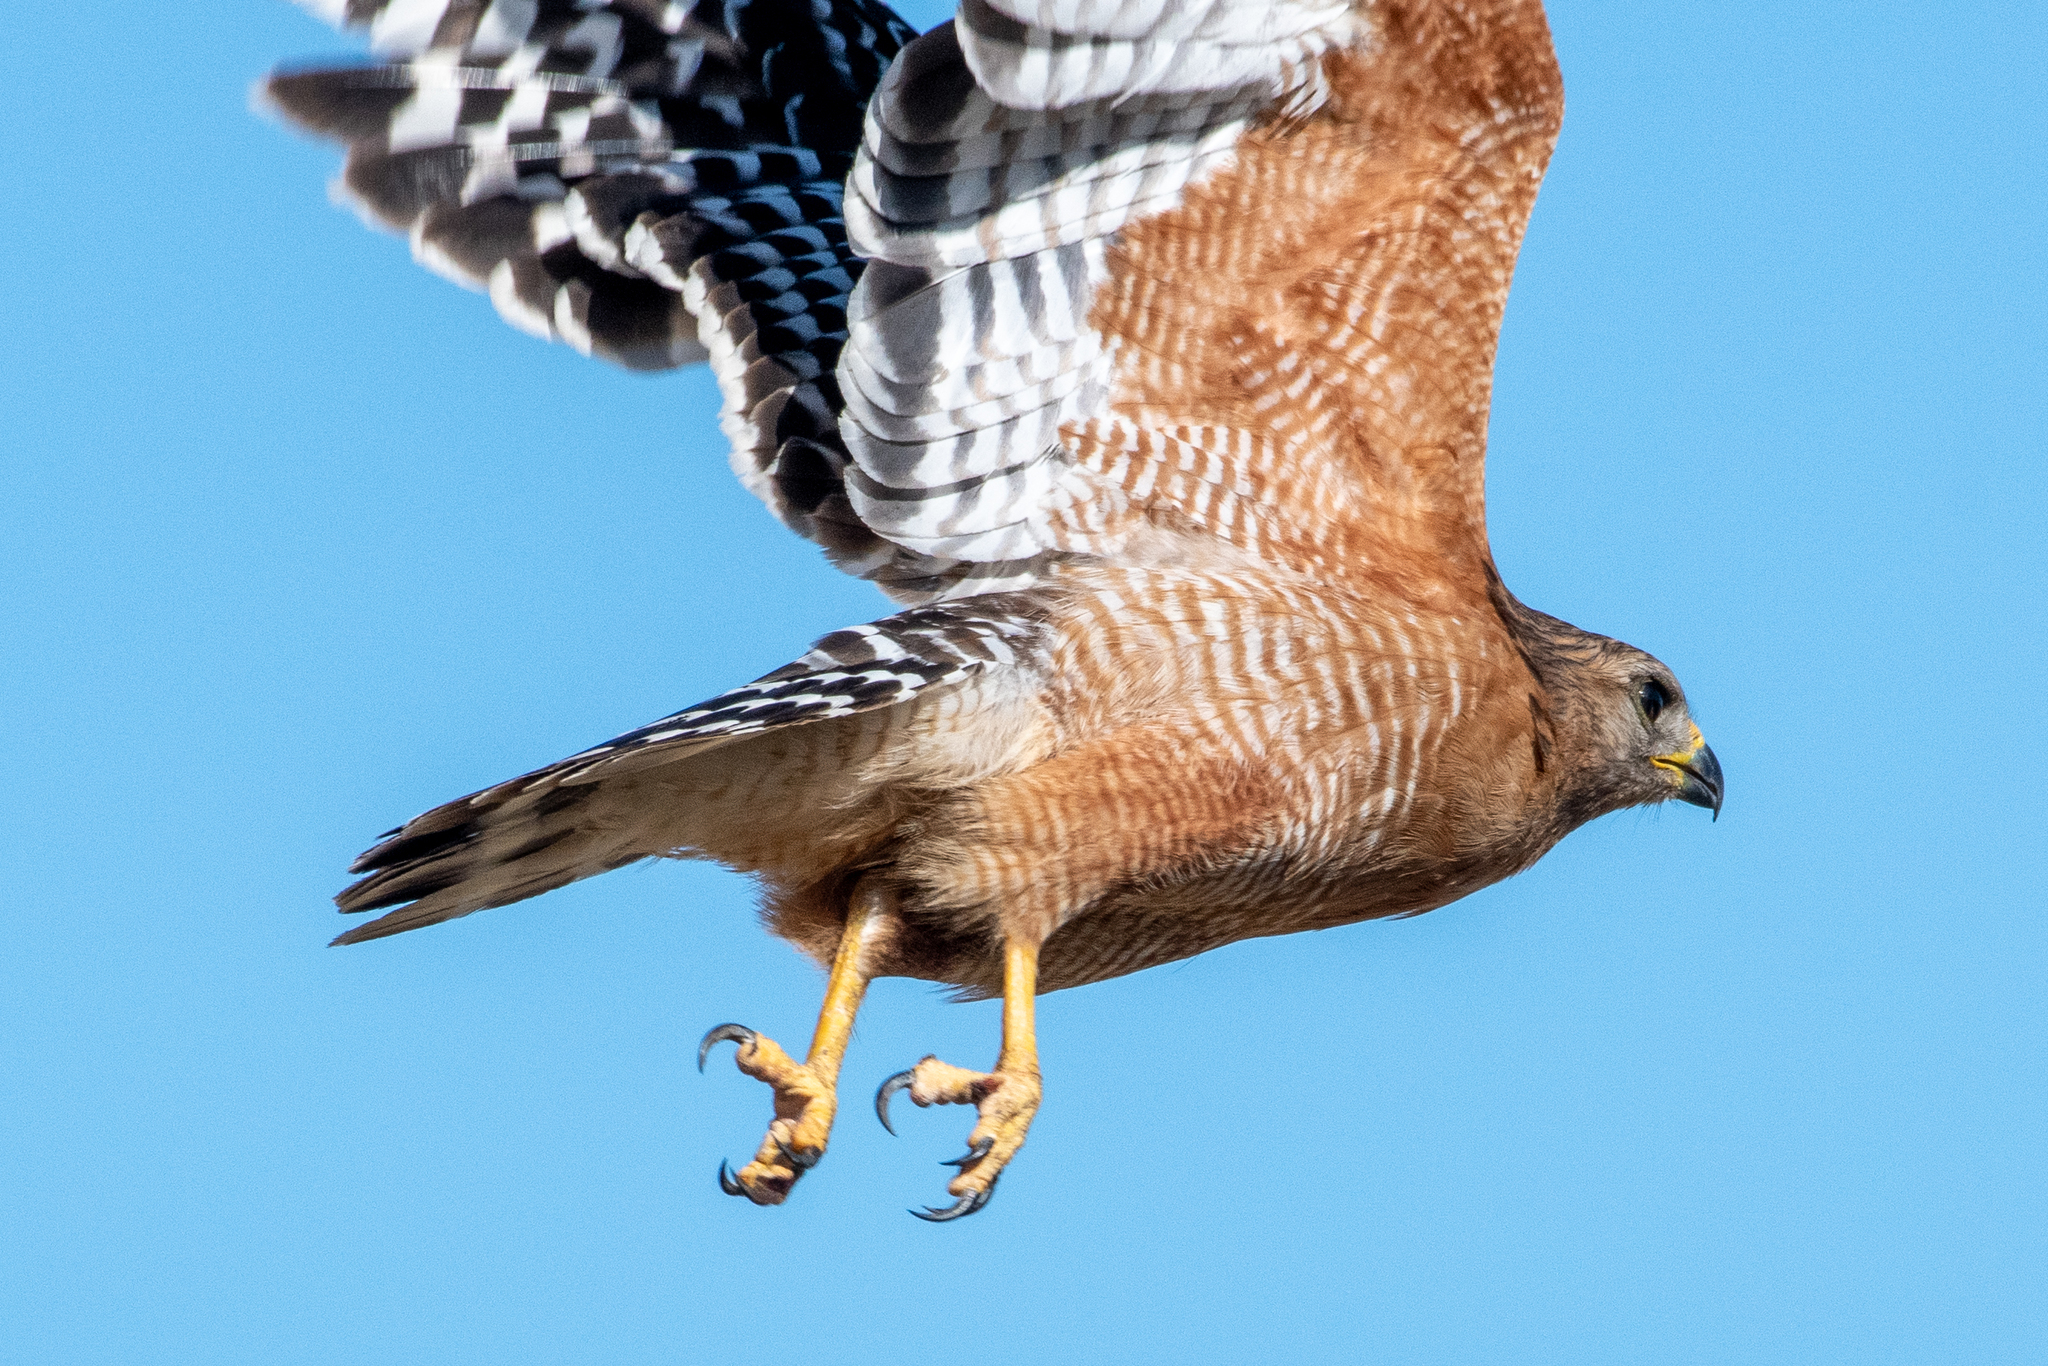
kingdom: Animalia
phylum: Chordata
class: Aves
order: Accipitriformes
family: Accipitridae
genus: Buteo
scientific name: Buteo lineatus
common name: Red-shouldered hawk
